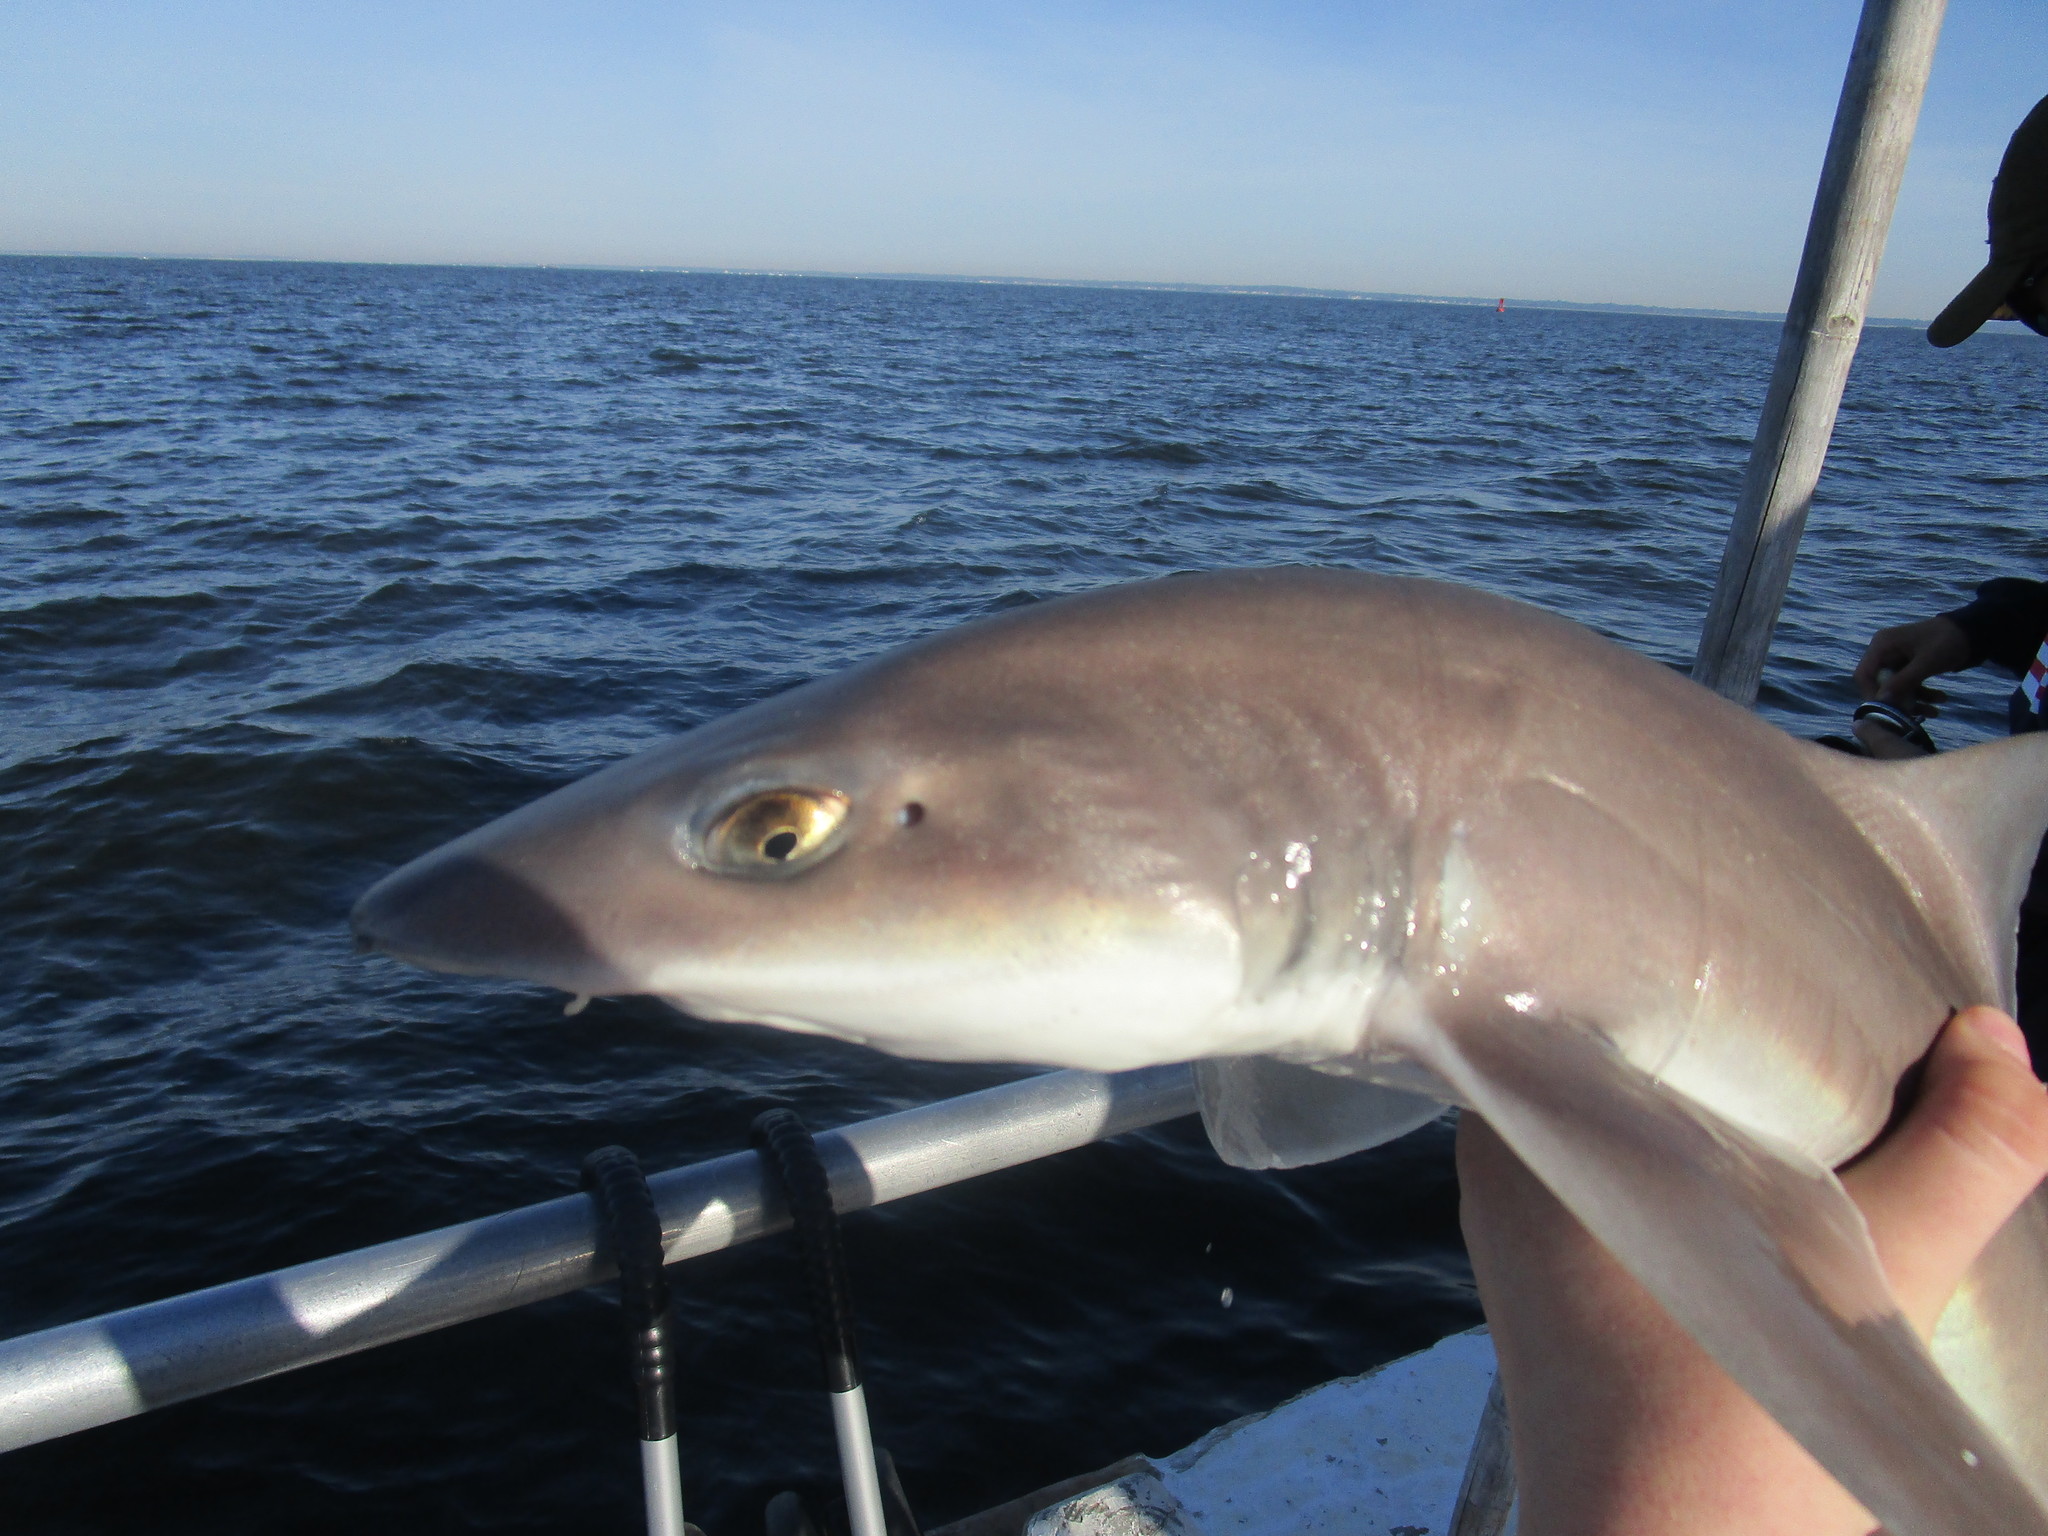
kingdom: Animalia
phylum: Chordata
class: Elasmobranchii
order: Carcharhiniformes
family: Triakidae
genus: Mustelus
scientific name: Mustelus canis
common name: Smooth dogfish
